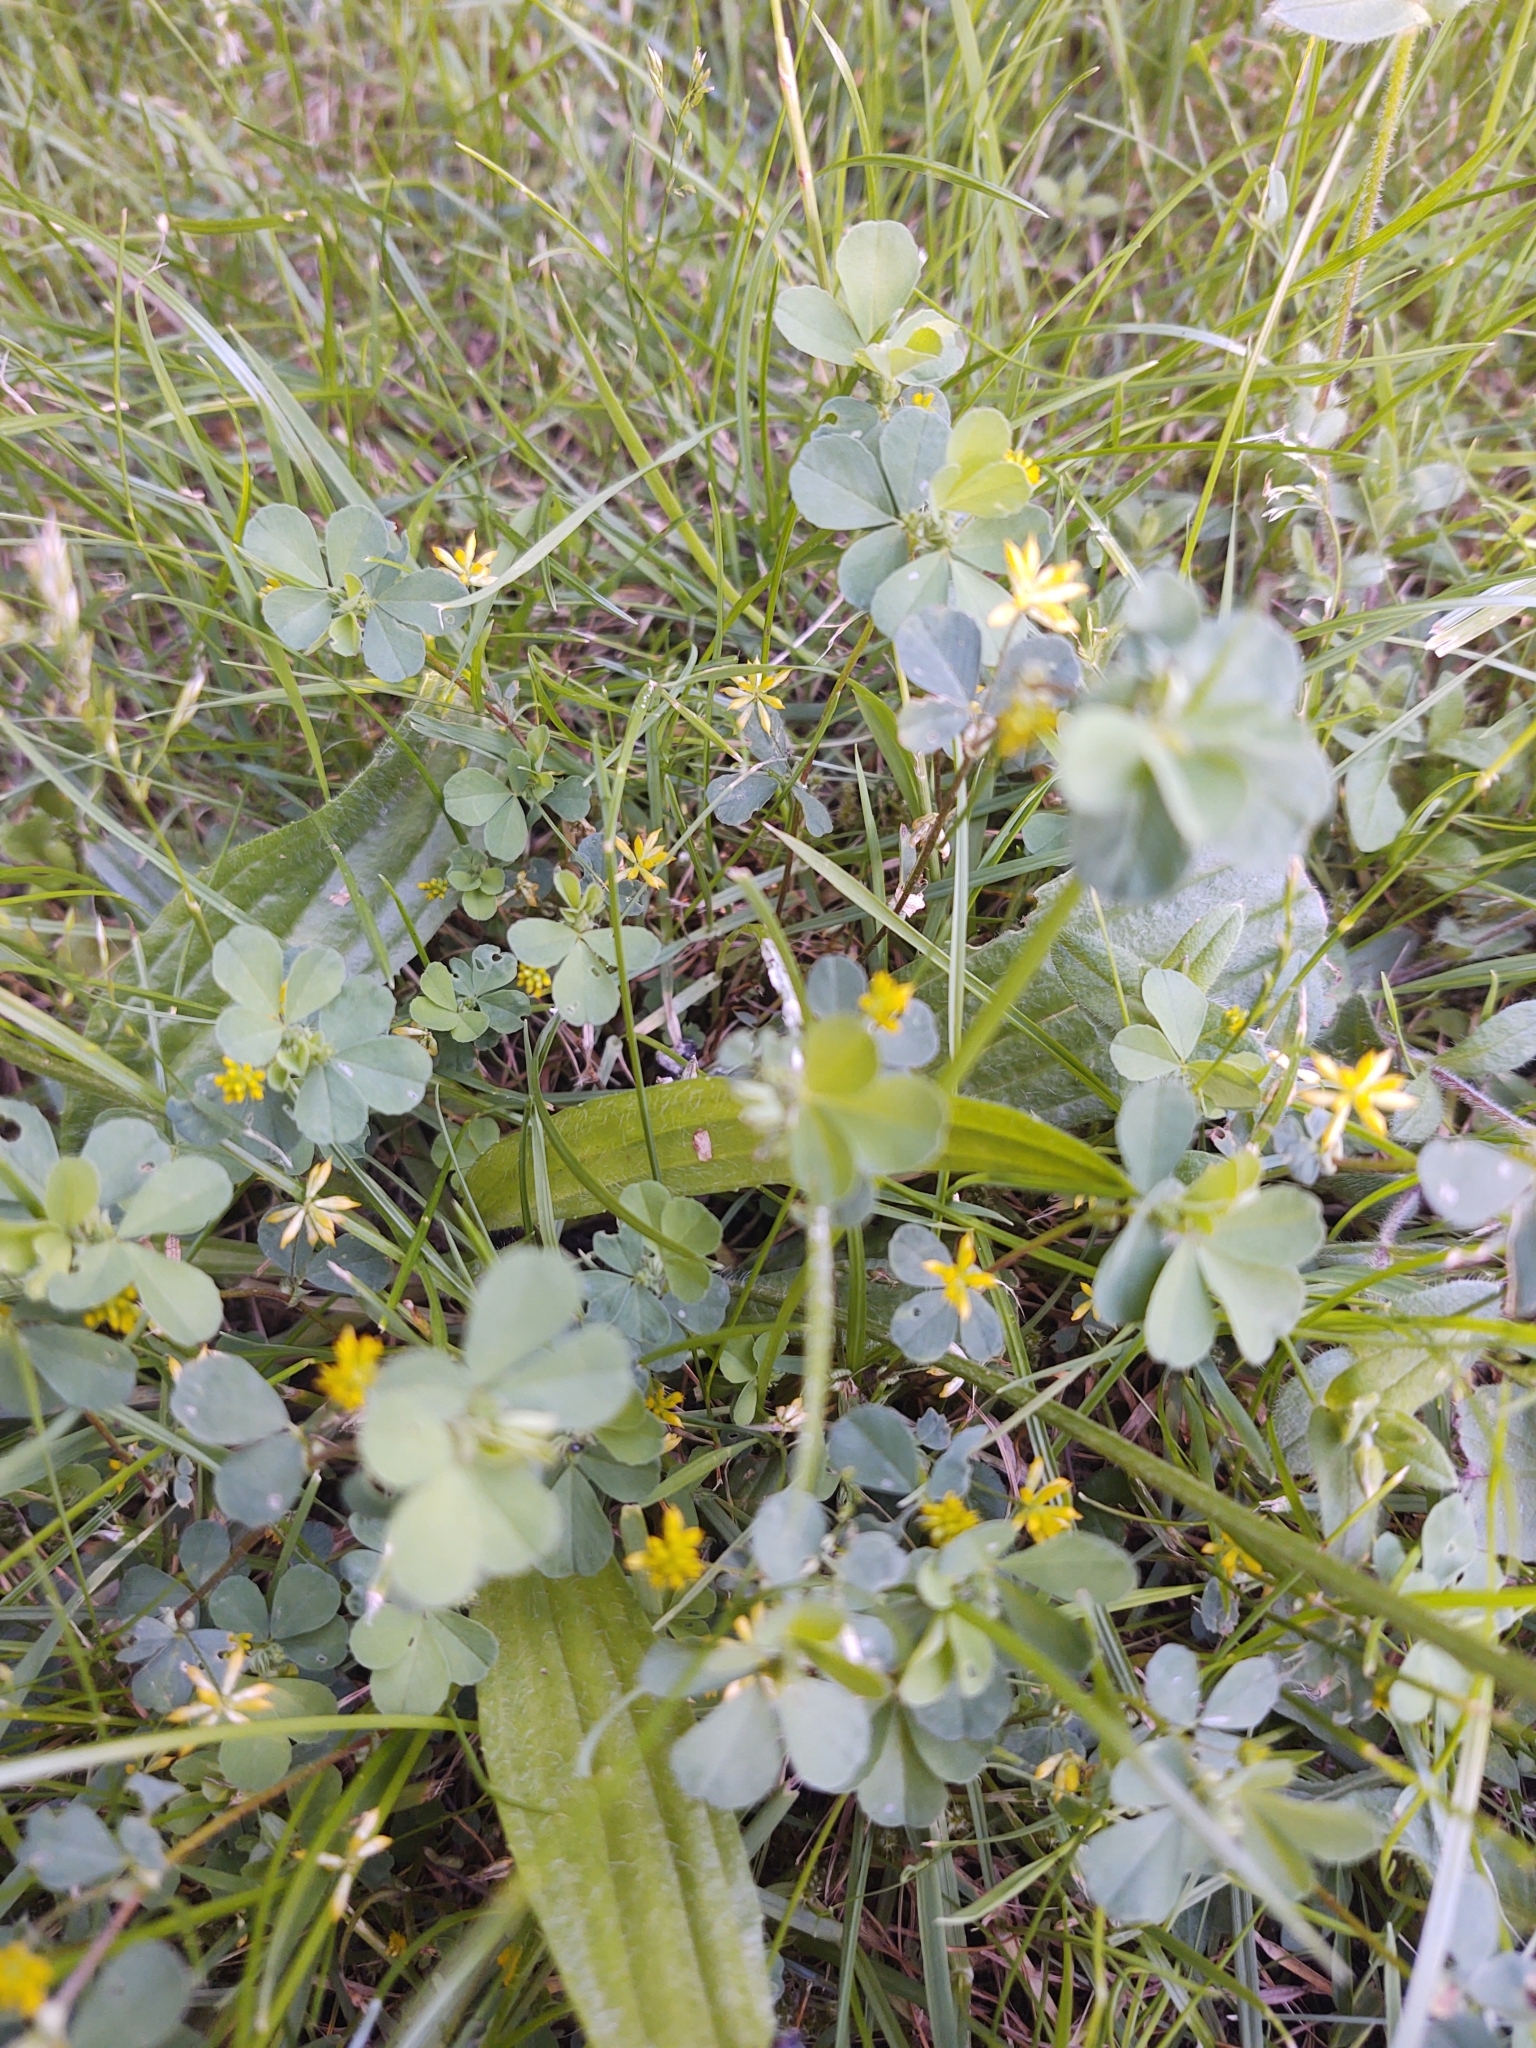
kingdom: Plantae
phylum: Tracheophyta
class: Magnoliopsida
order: Fabales
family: Fabaceae
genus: Trifolium
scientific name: Trifolium dubium
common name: Suckling clover
